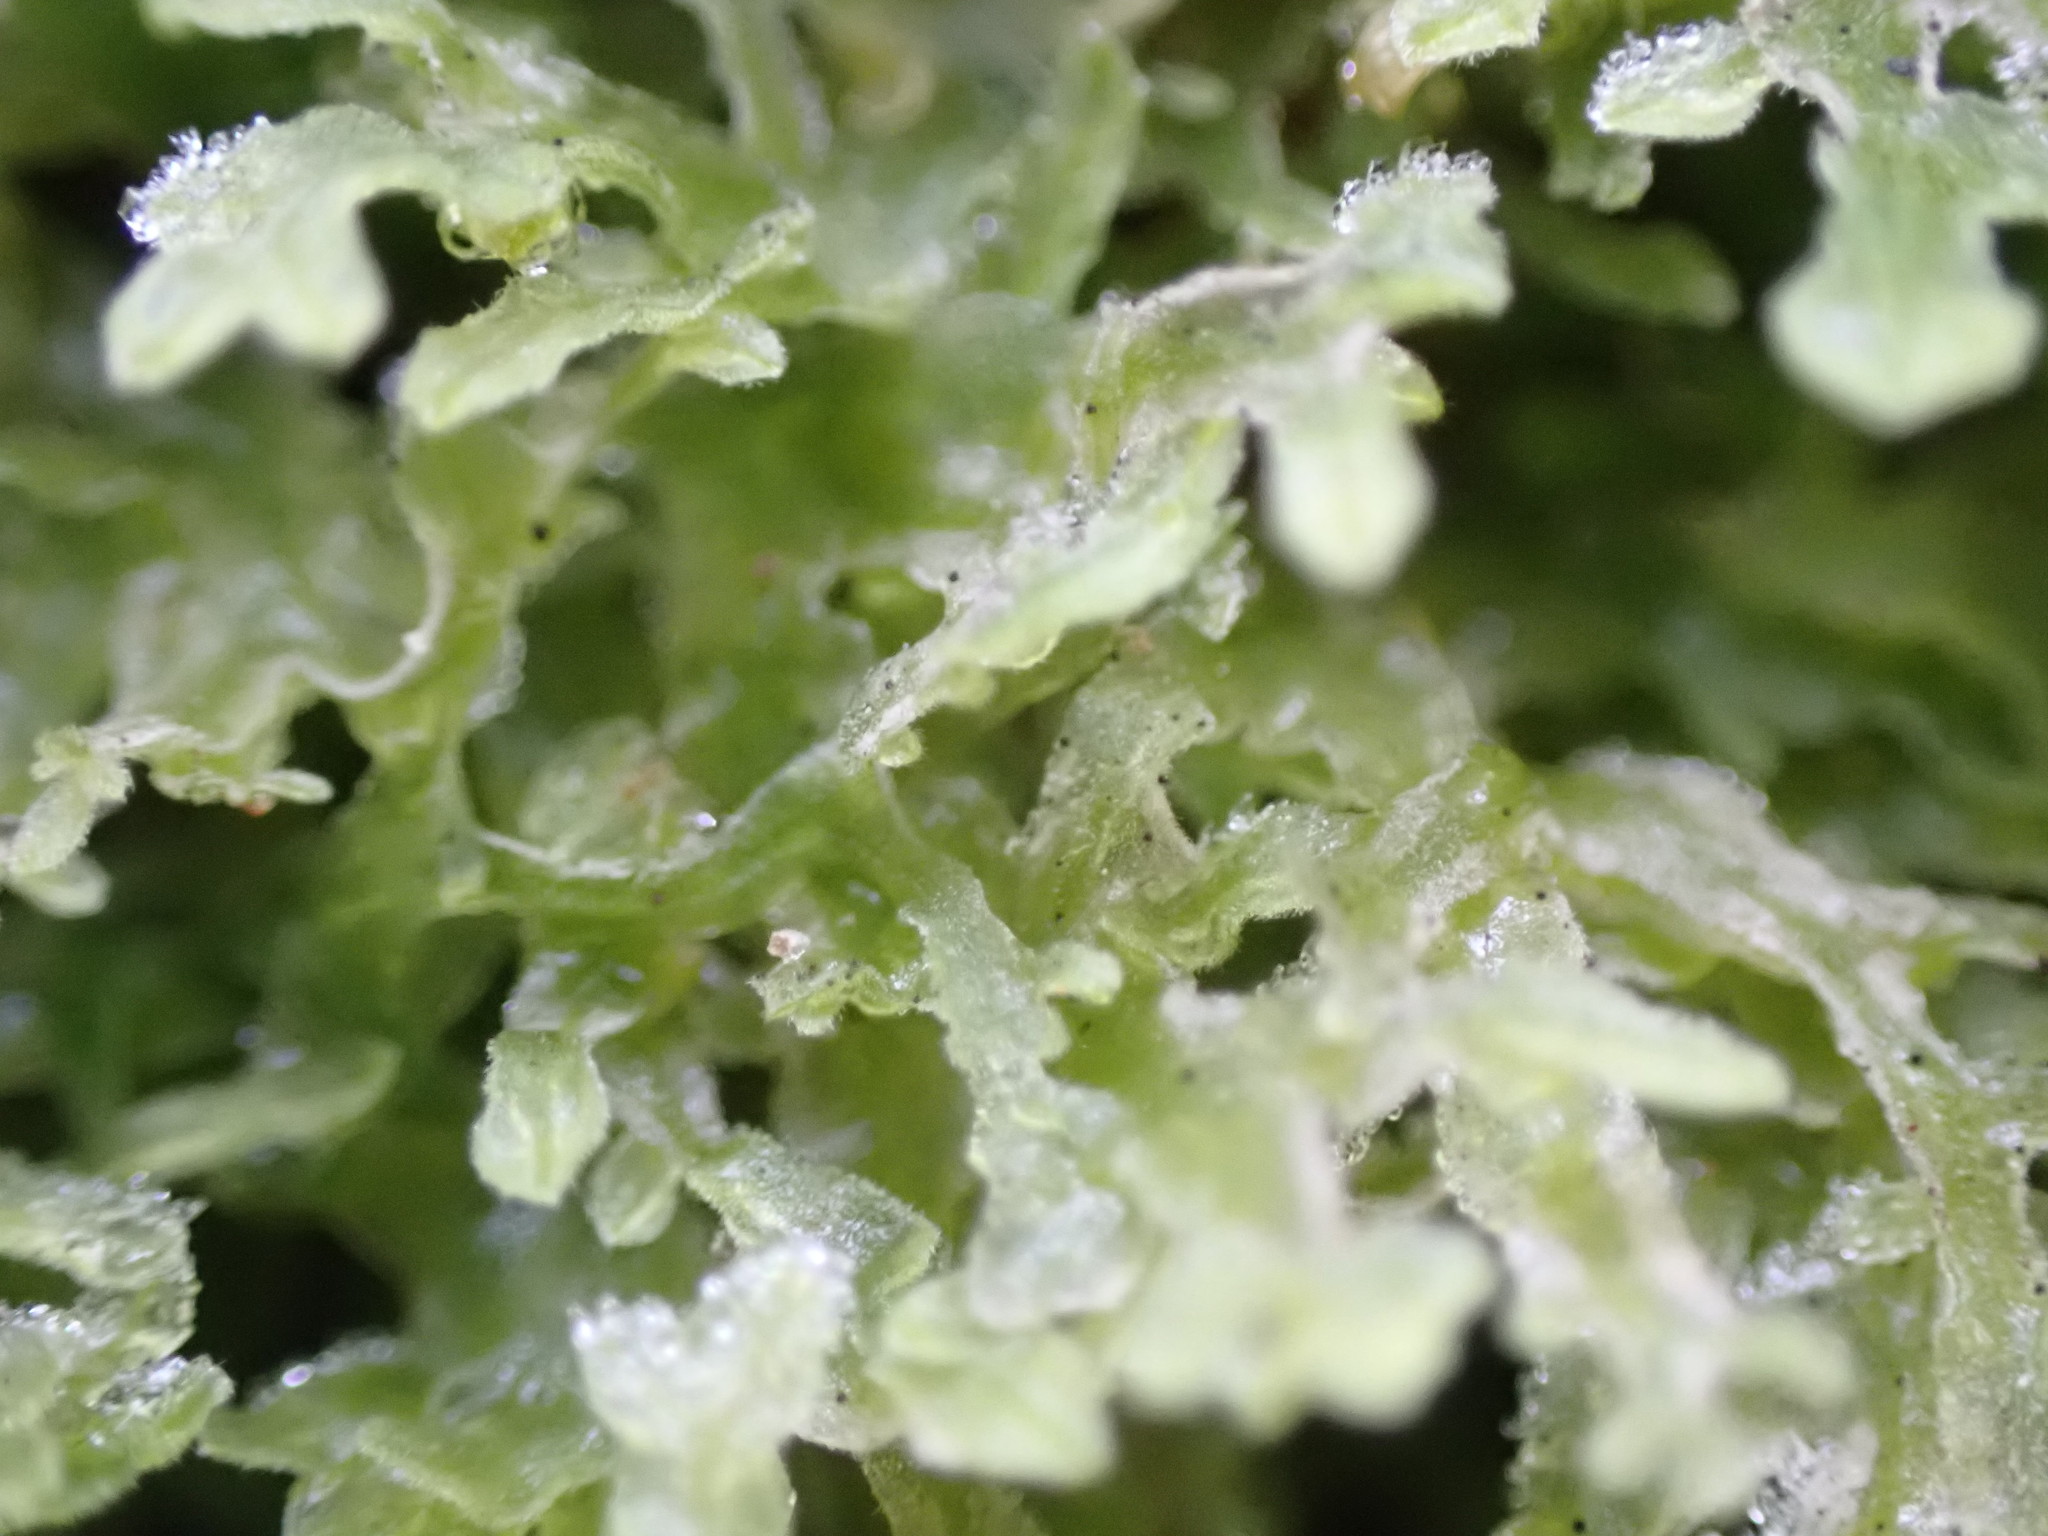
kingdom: Plantae
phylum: Marchantiophyta
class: Jungermanniopsida
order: Metzgeriales
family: Metzgeriaceae
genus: Metzgeria
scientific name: Metzgeria pubescens
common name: Downy veilwort
